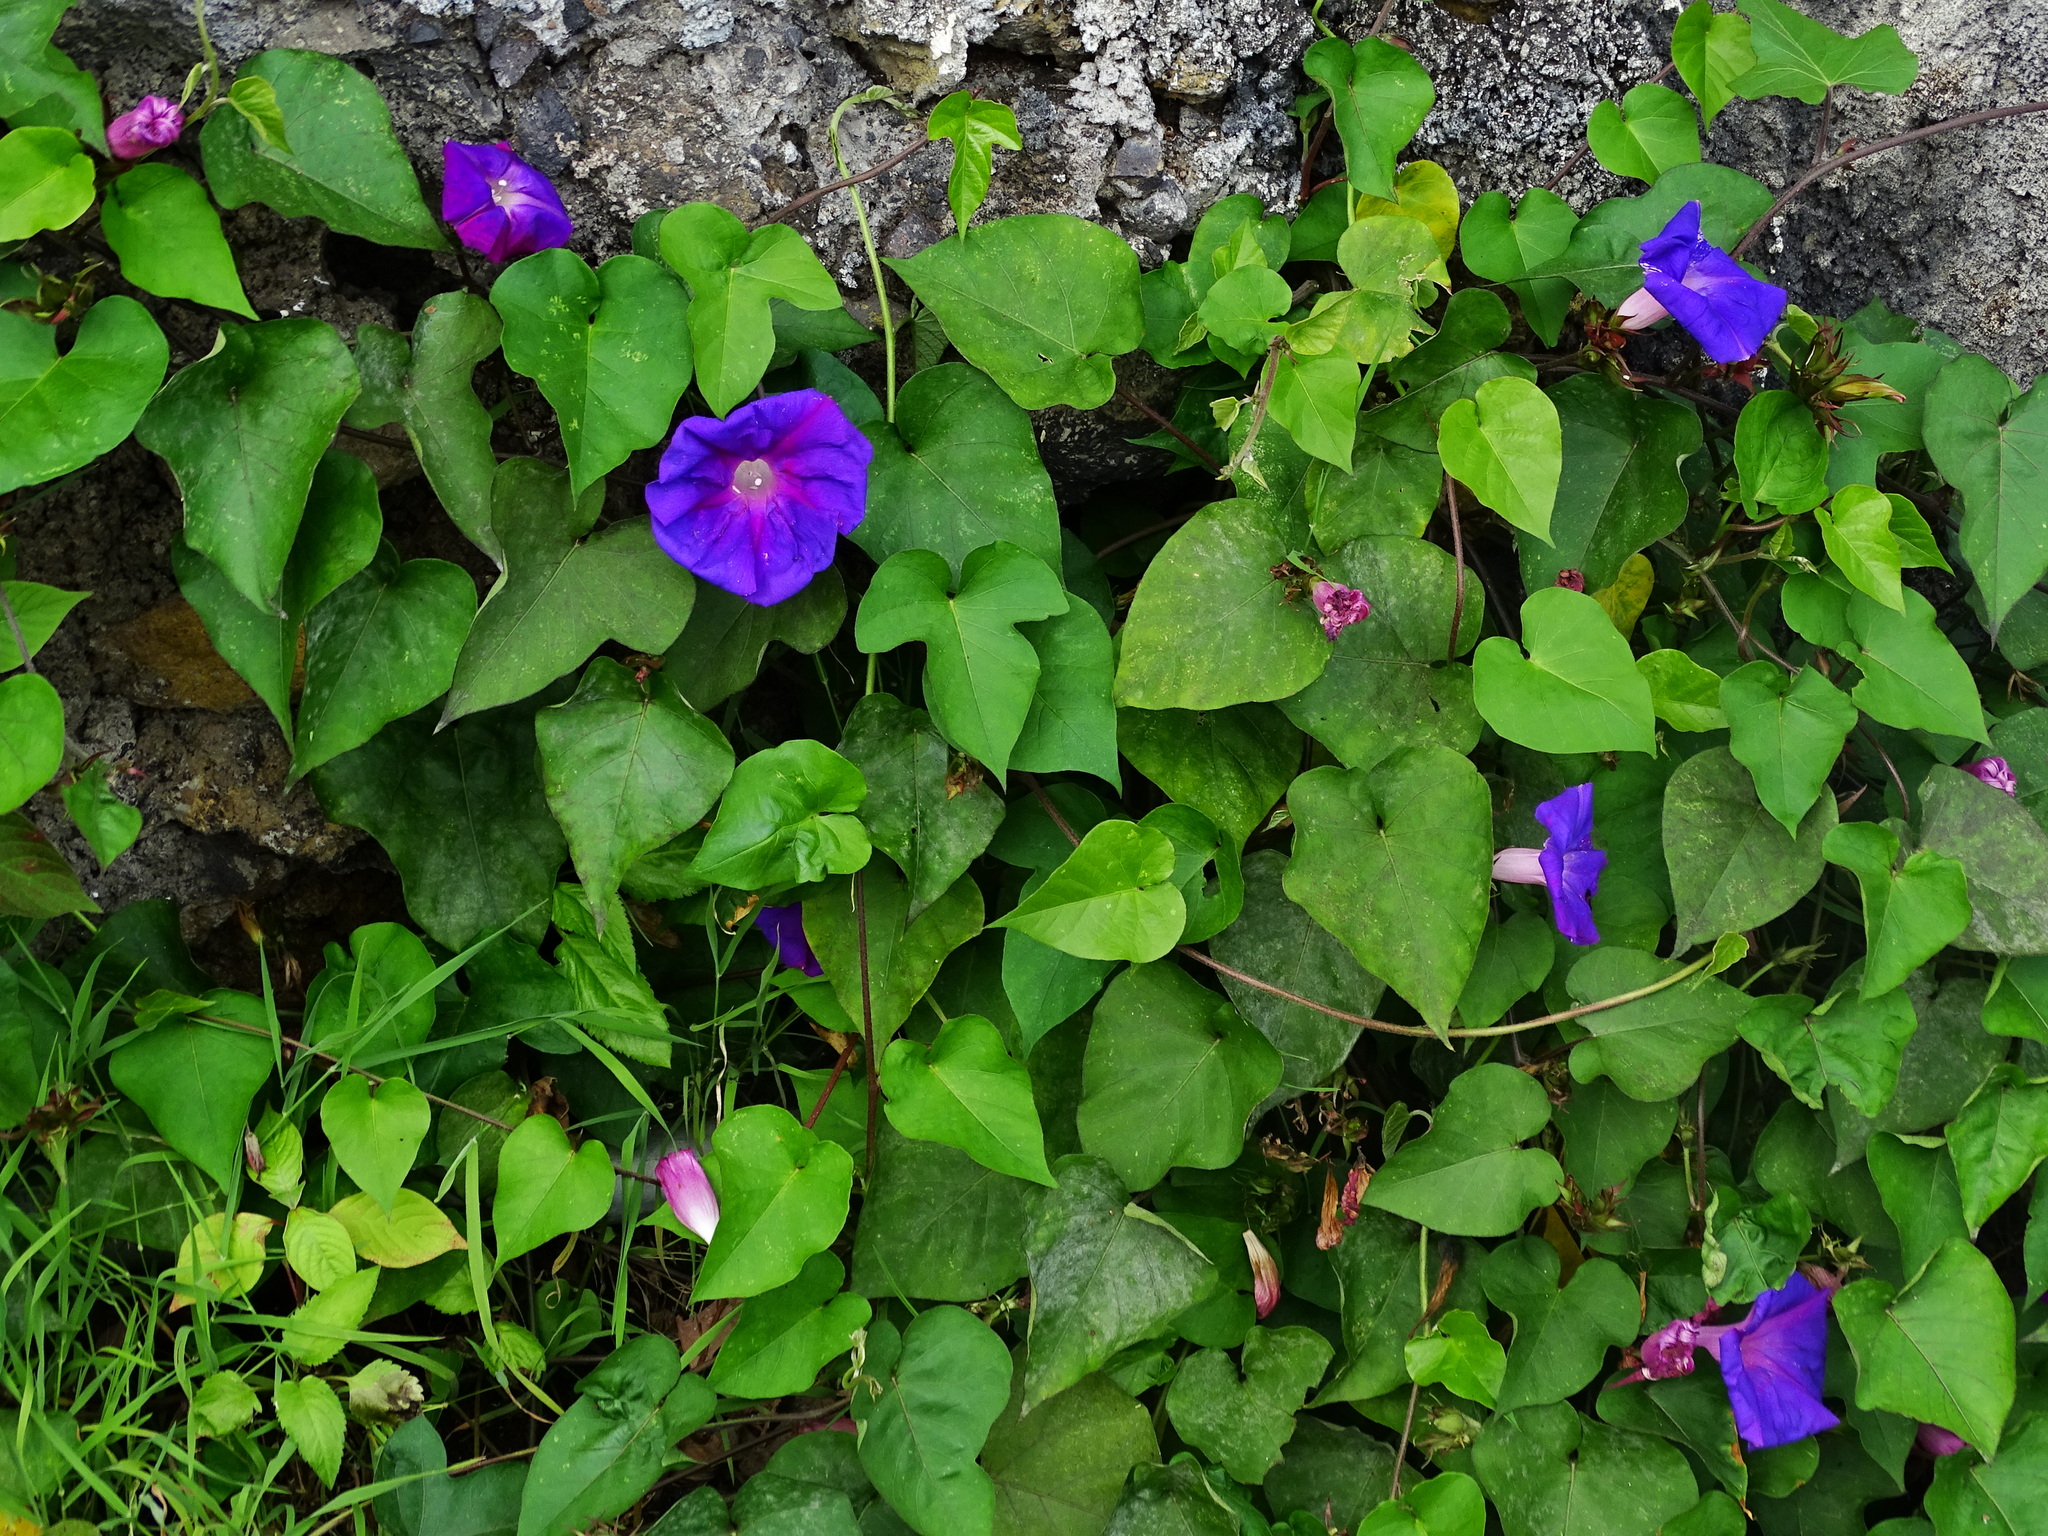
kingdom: Plantae
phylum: Tracheophyta
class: Magnoliopsida
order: Solanales
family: Convolvulaceae
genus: Ipomoea
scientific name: Ipomoea indica
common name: Blue dawnflower
